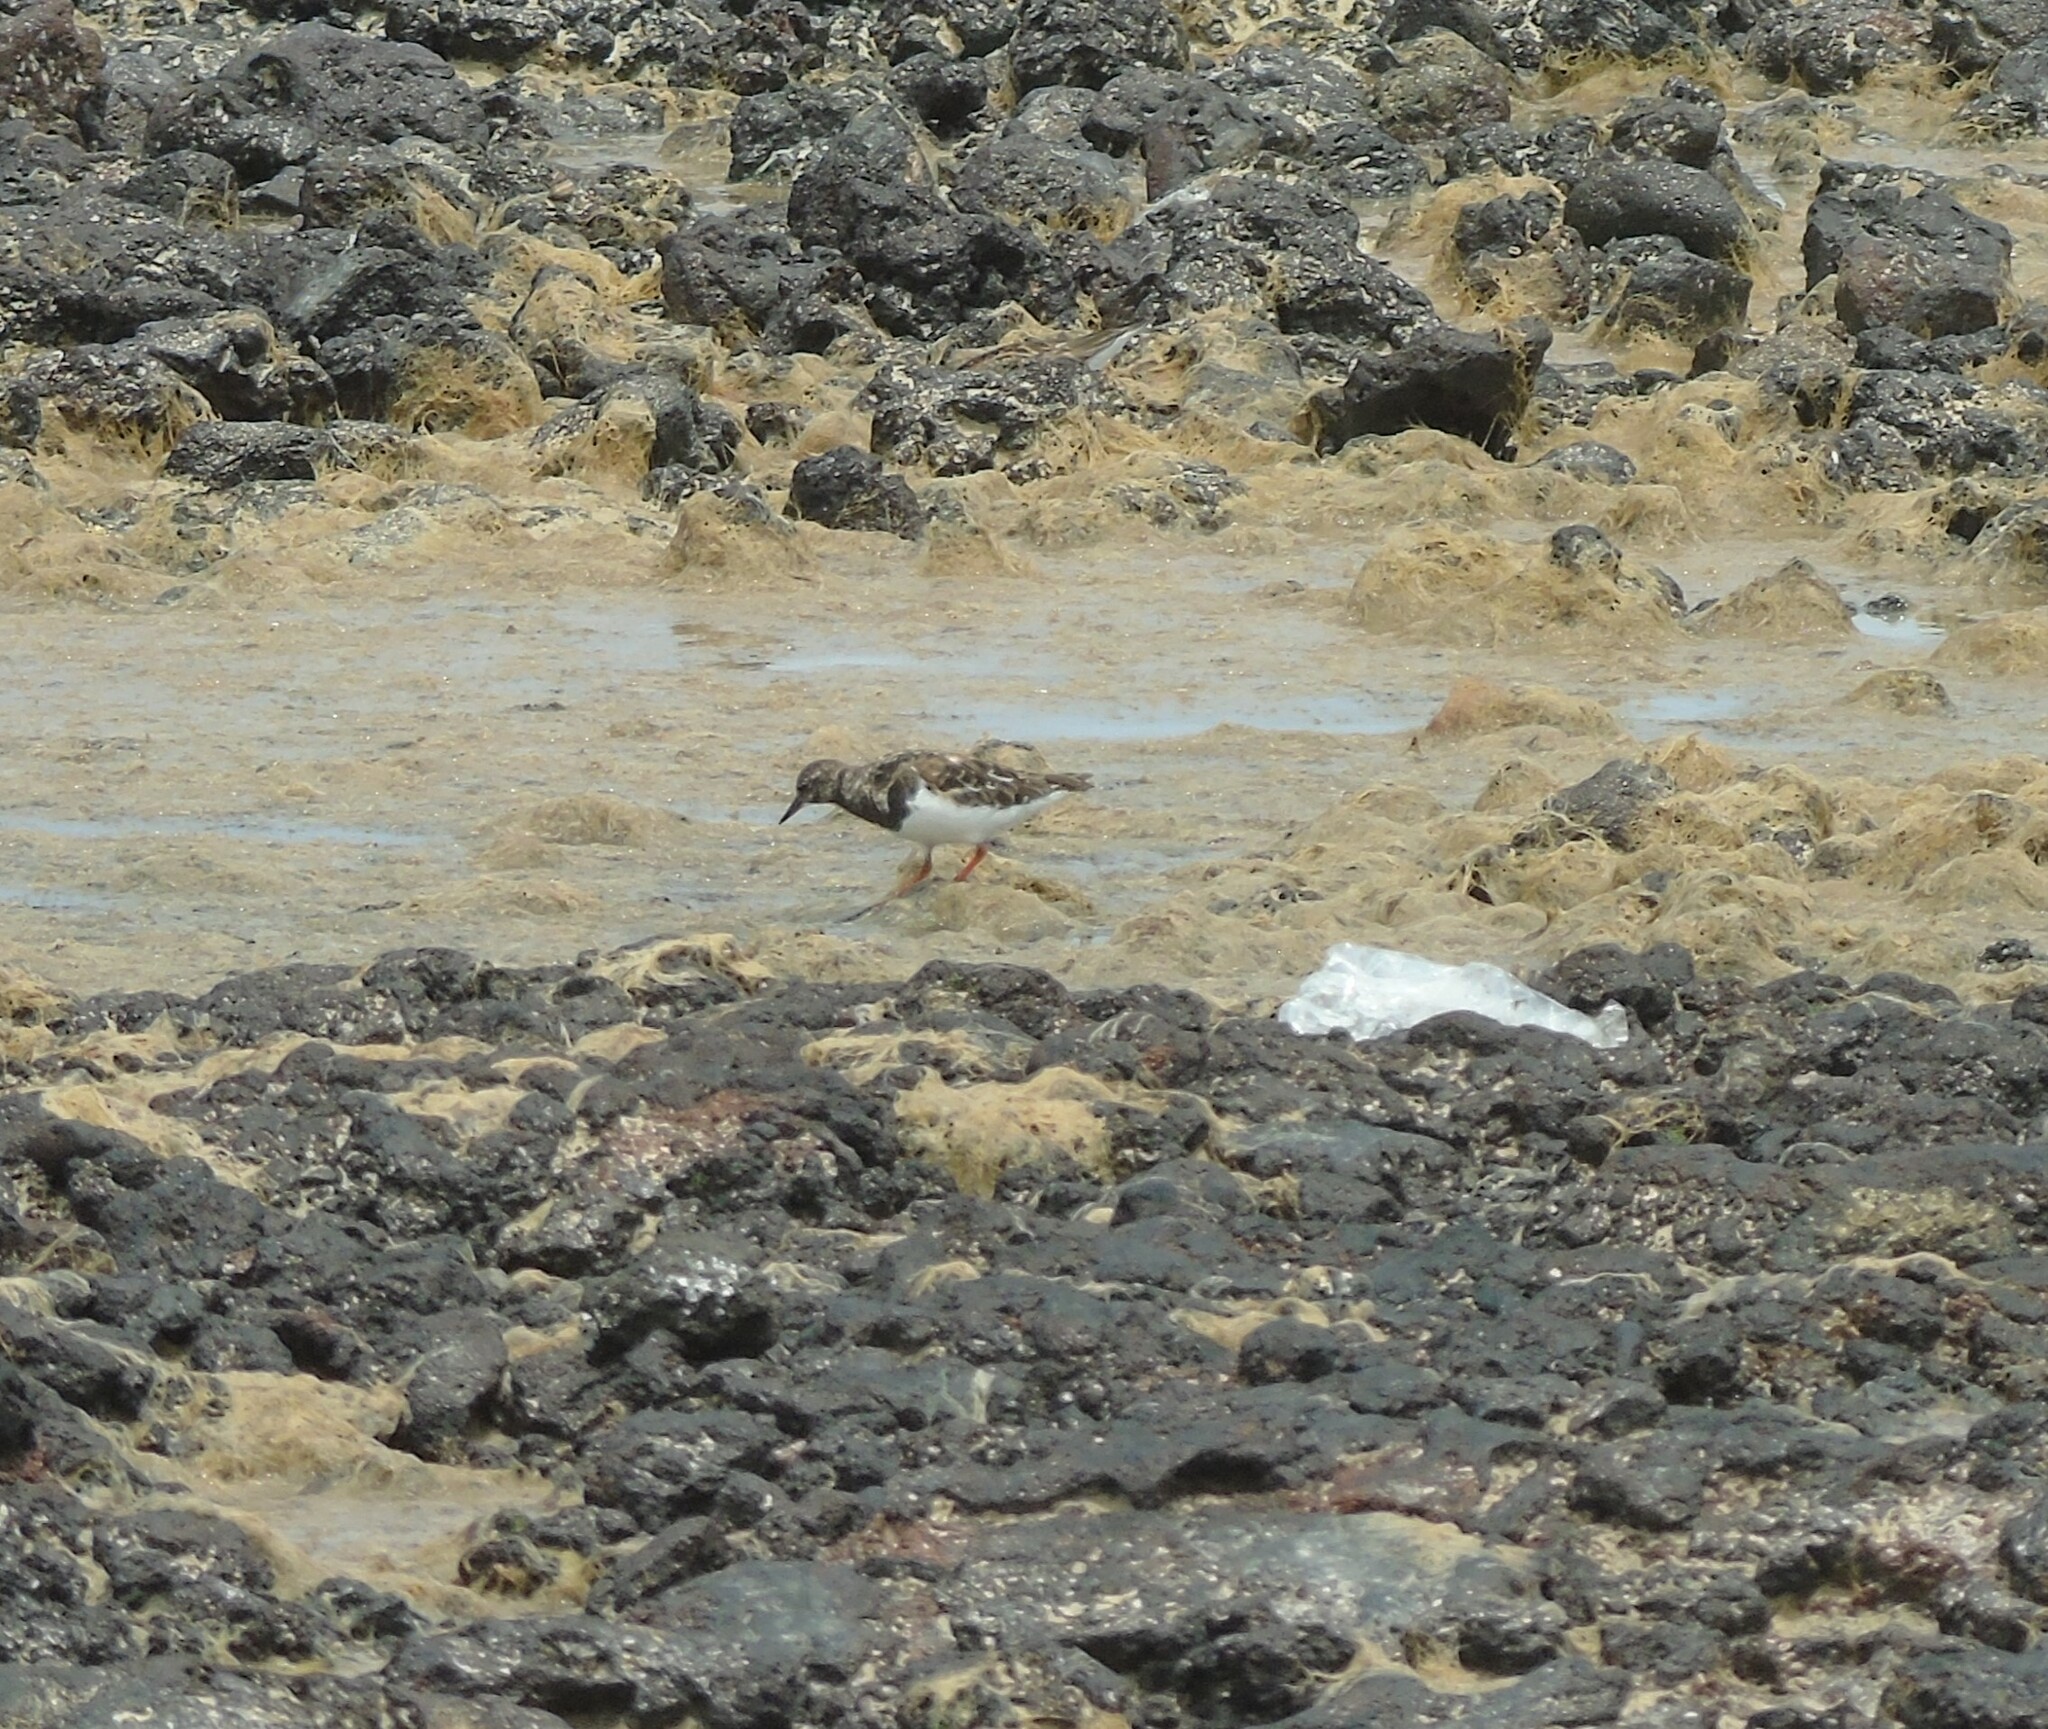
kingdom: Animalia
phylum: Chordata
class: Aves
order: Charadriiformes
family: Scolopacidae
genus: Arenaria
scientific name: Arenaria interpres
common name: Ruddy turnstone
